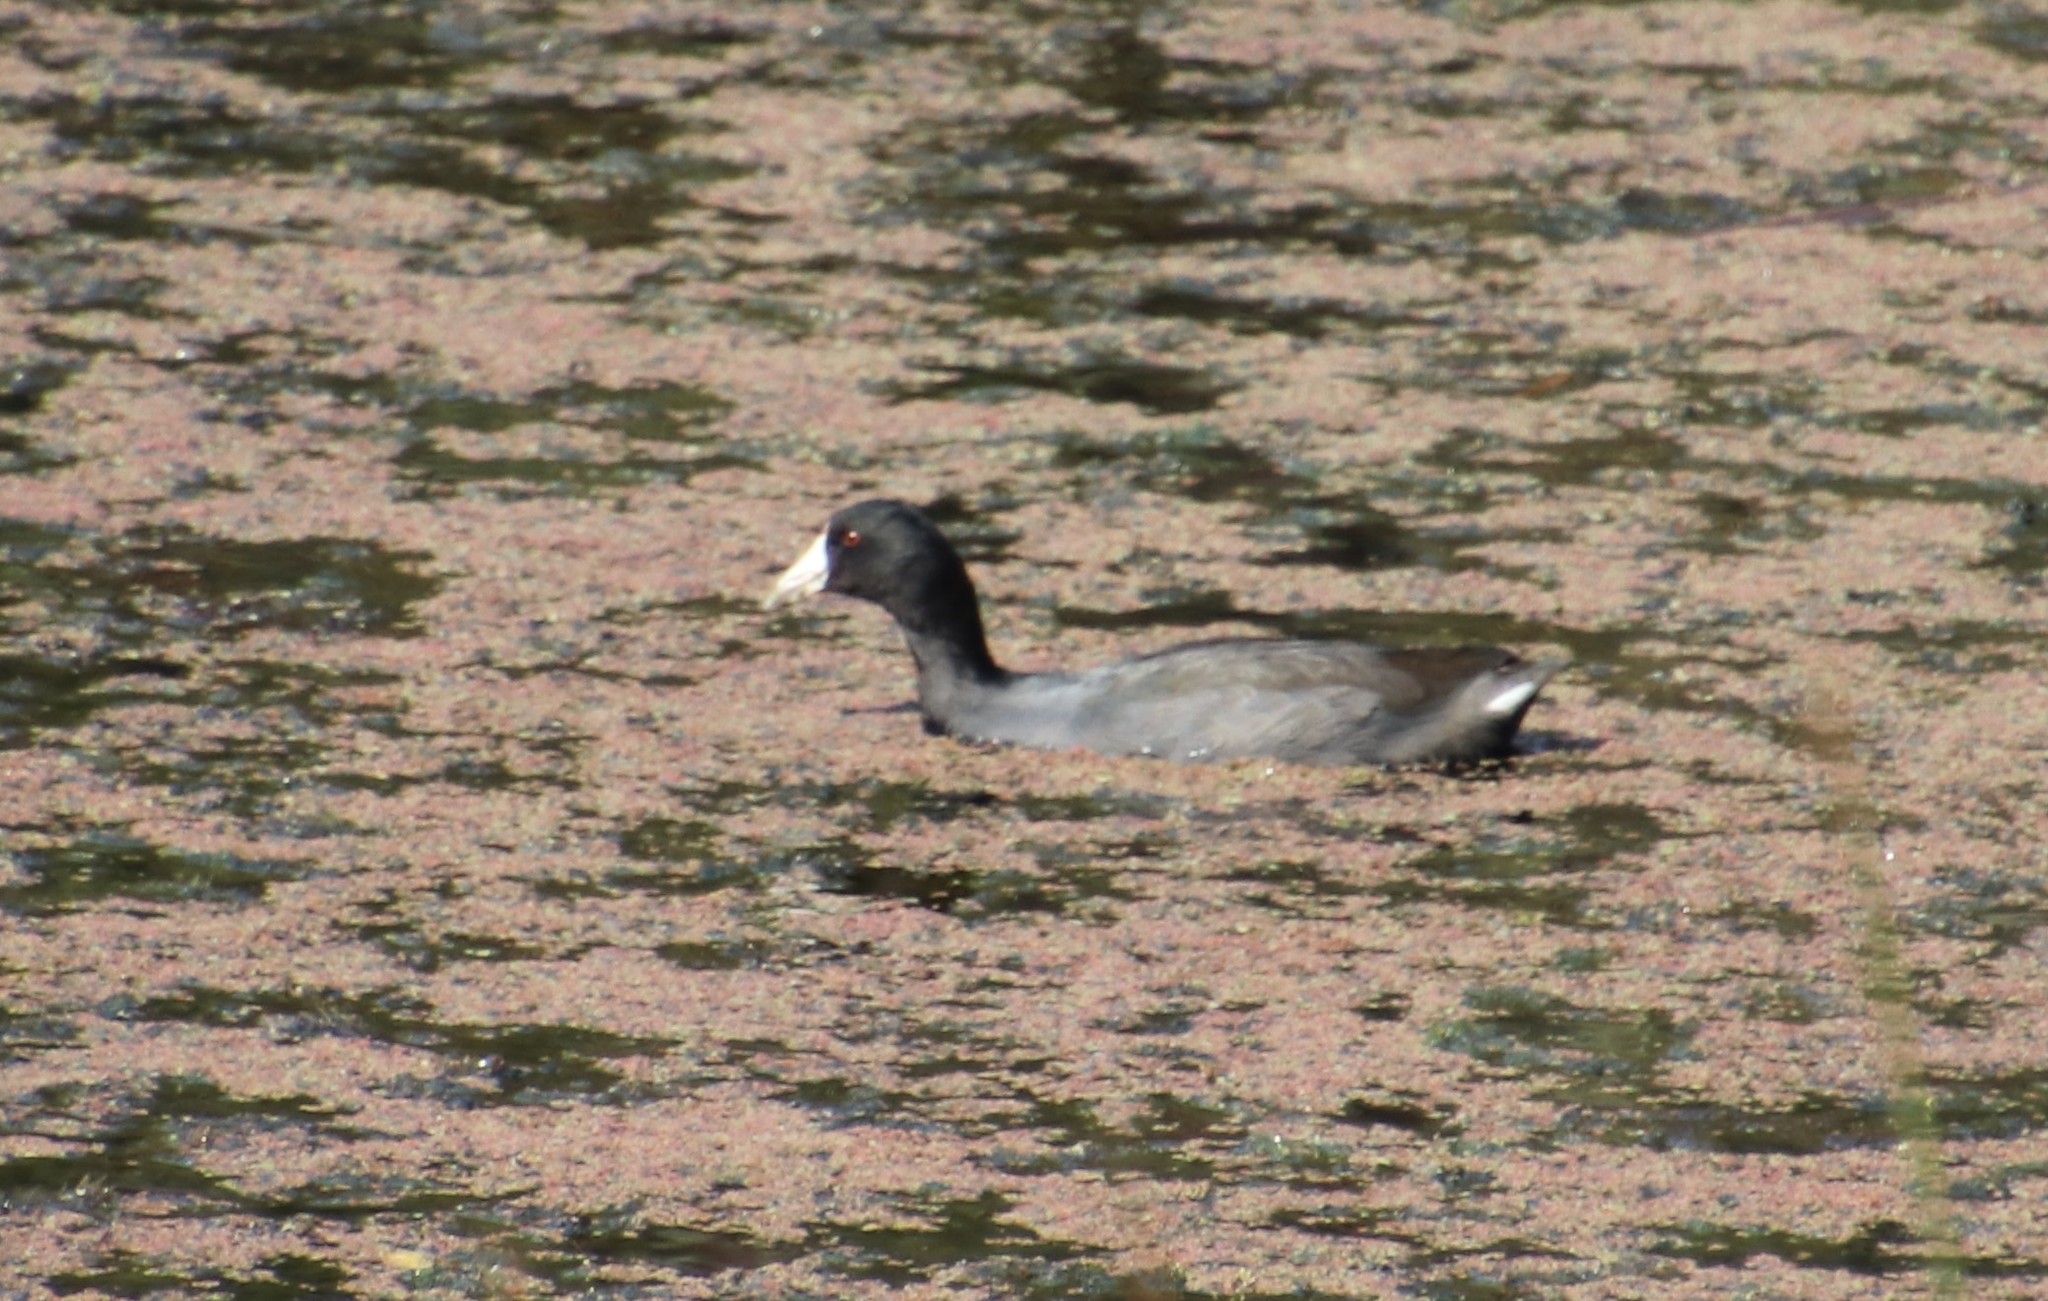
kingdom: Animalia
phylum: Chordata
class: Aves
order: Gruiformes
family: Rallidae
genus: Fulica
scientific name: Fulica americana
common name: American coot
